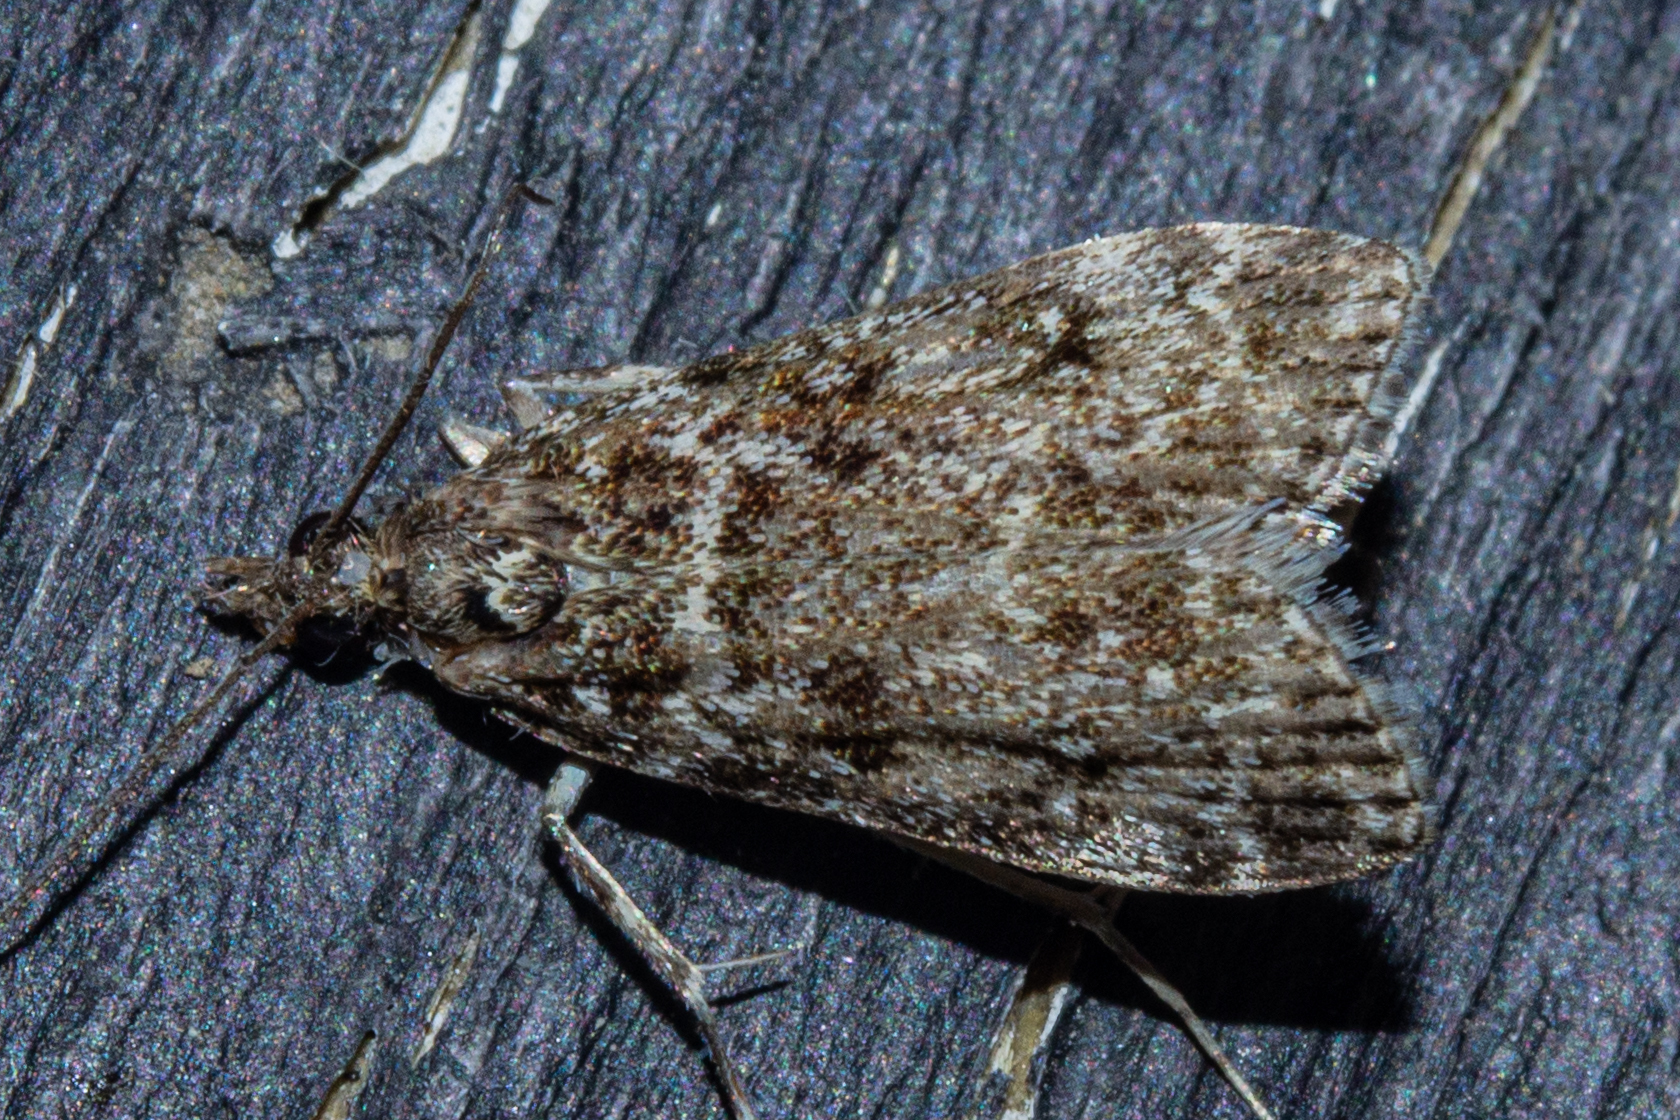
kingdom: Animalia
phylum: Arthropoda
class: Insecta
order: Lepidoptera
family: Crambidae
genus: Eudonia
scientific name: Eudonia philerga
